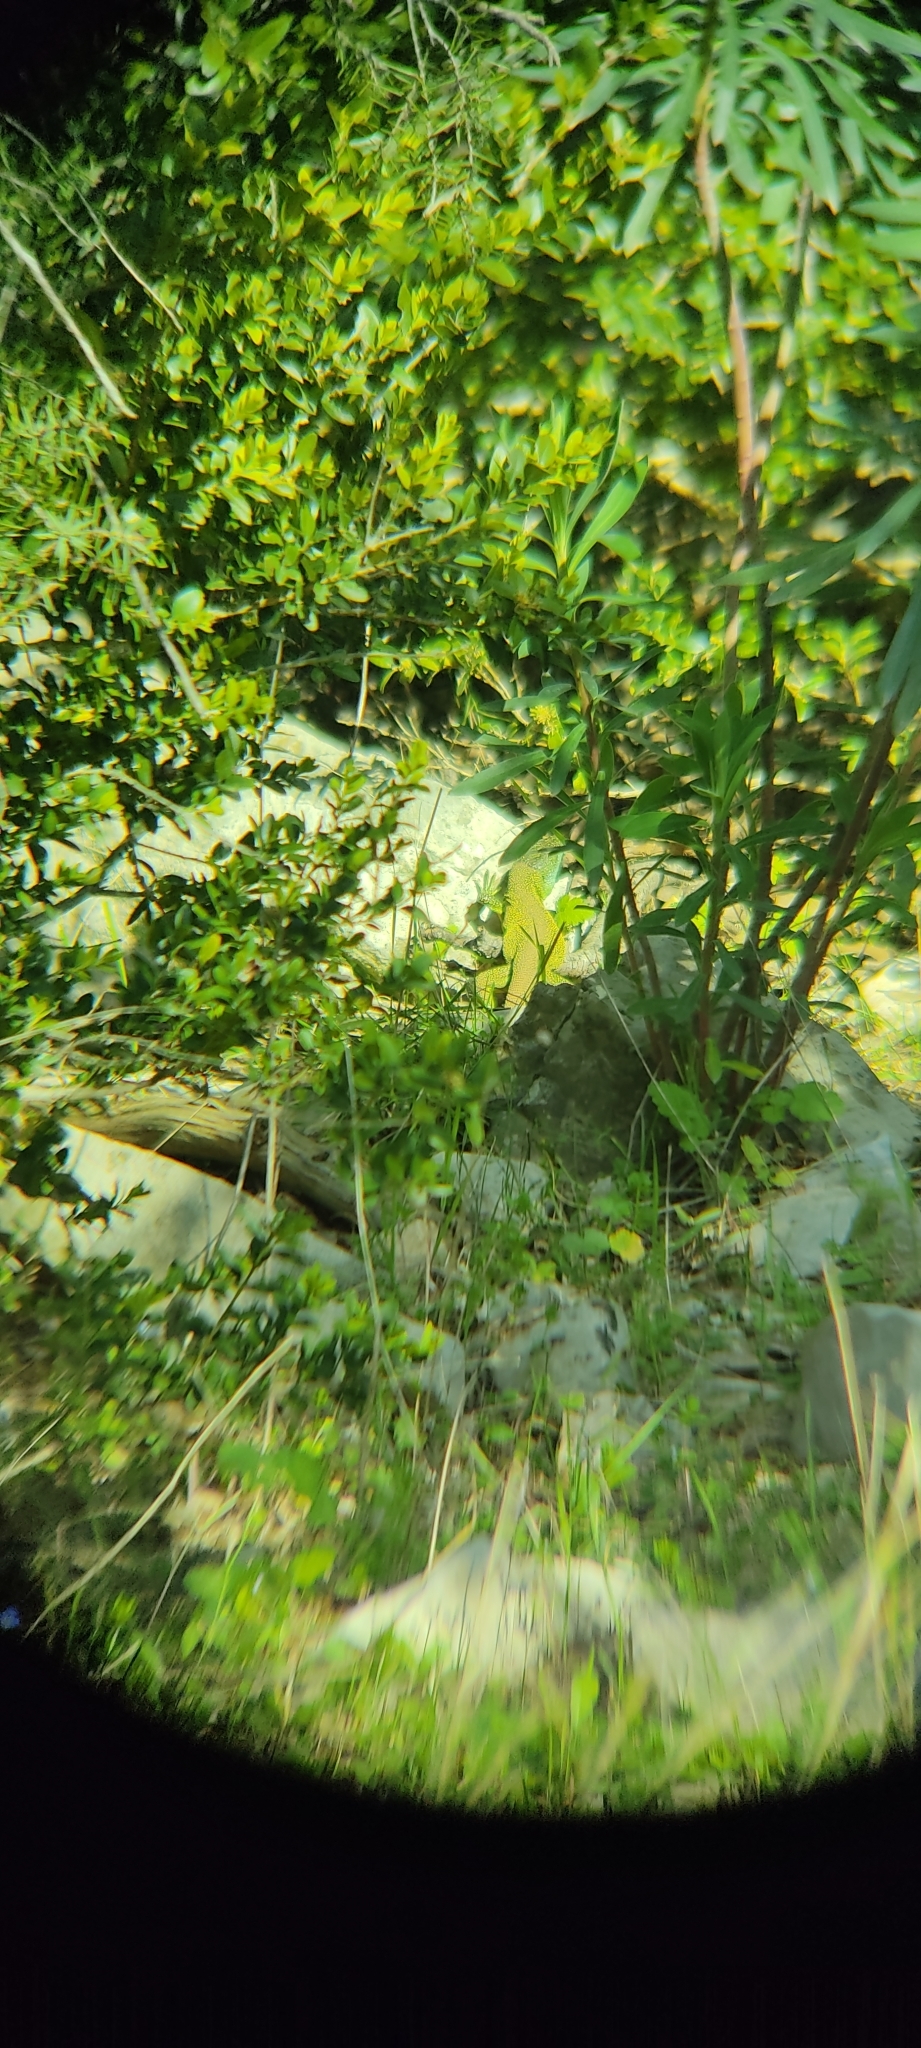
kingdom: Animalia
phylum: Chordata
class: Squamata
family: Lacertidae
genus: Lacerta
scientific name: Lacerta bilineata
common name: Western green lizard
